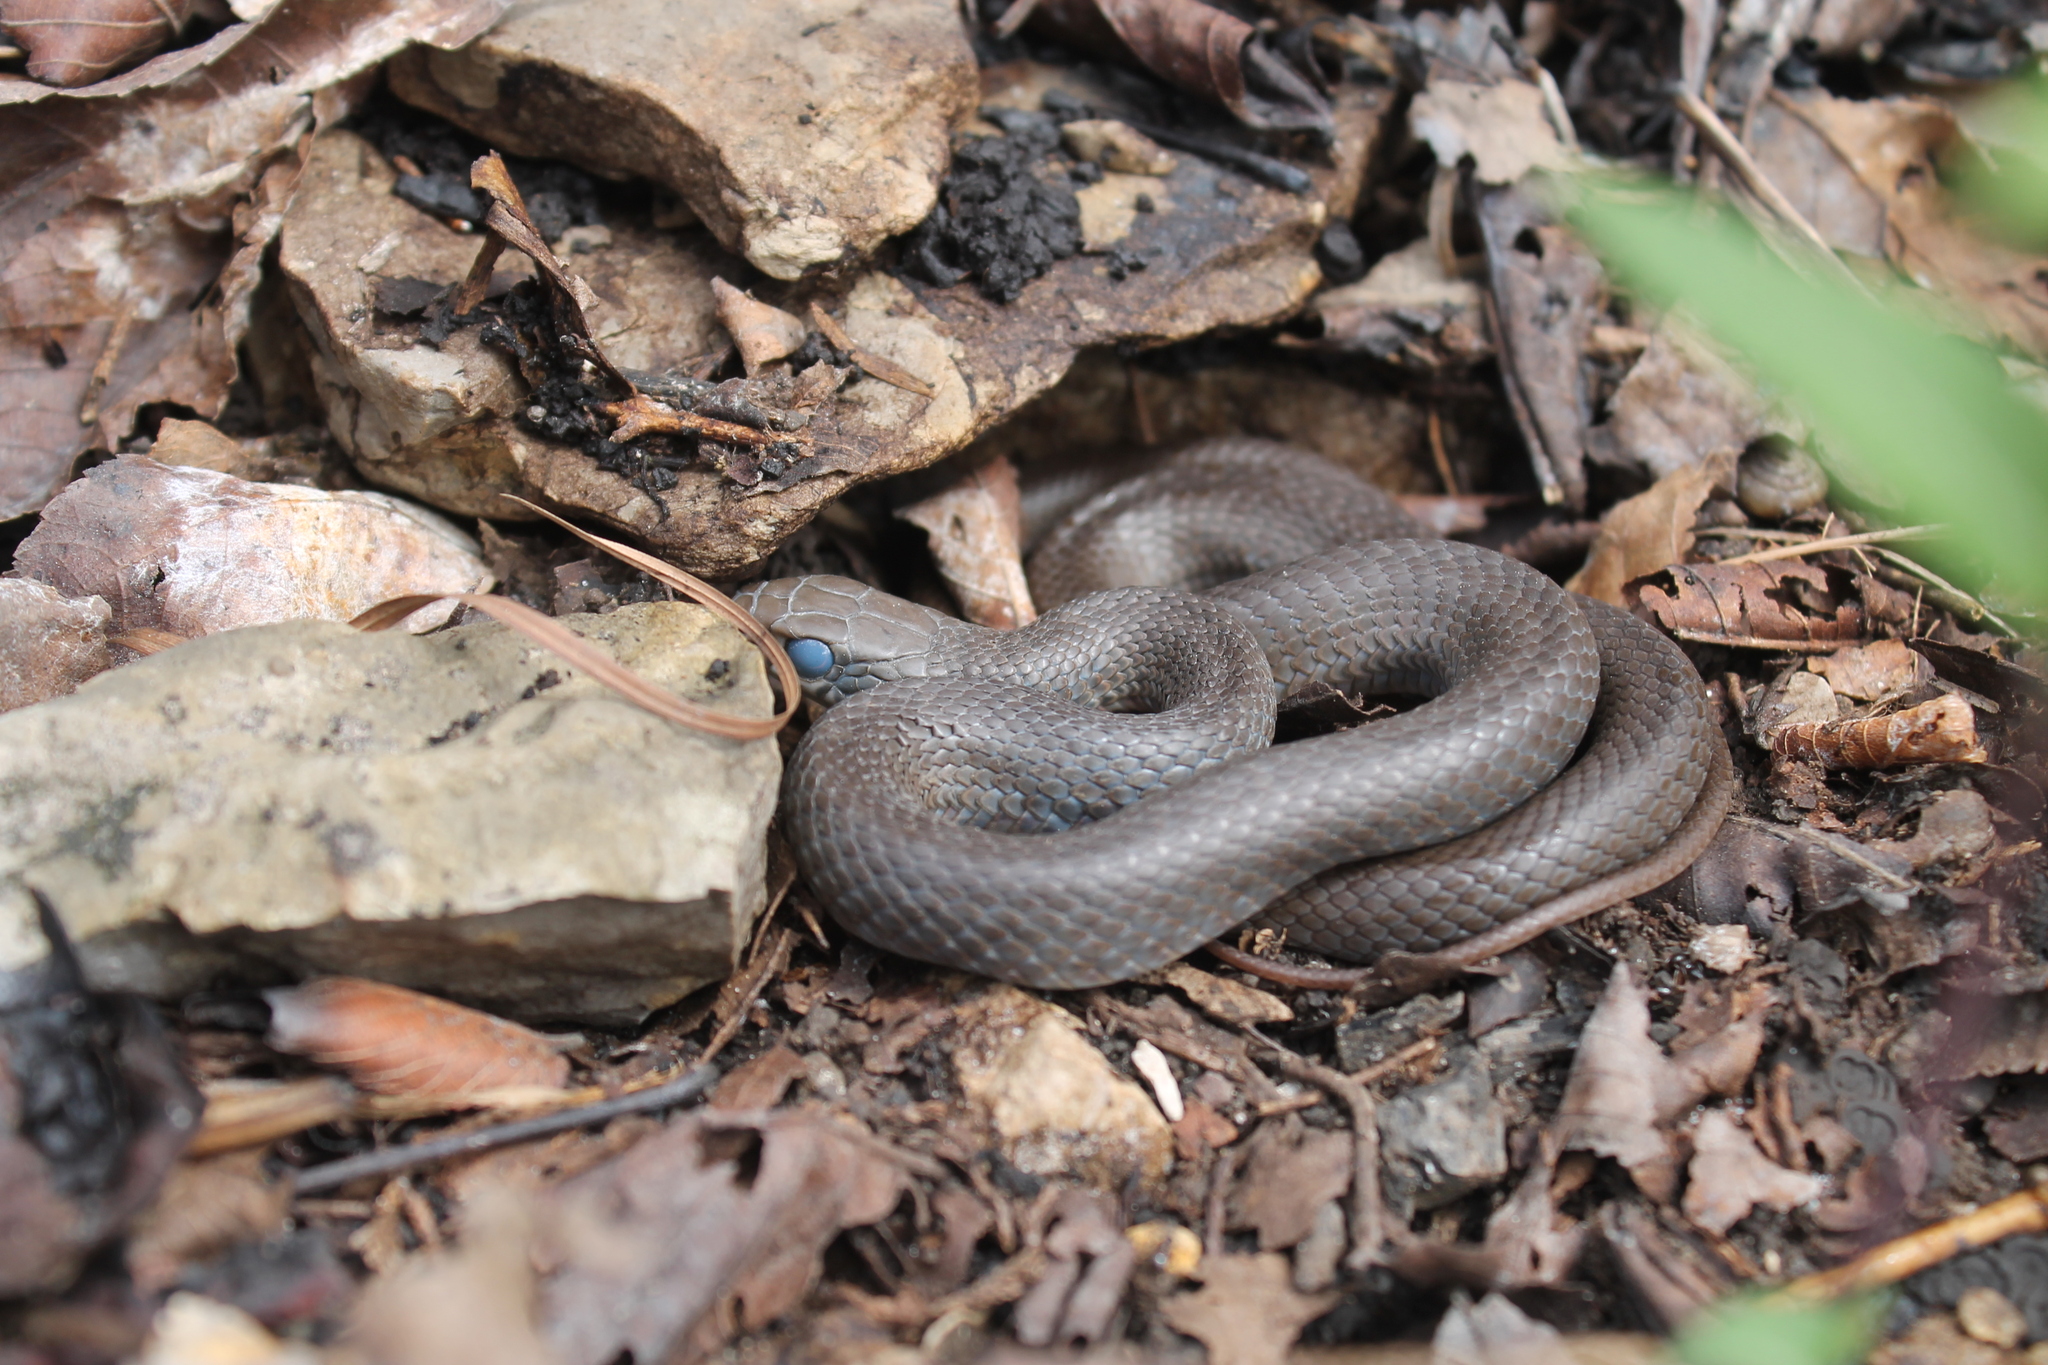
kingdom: Animalia
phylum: Chordata
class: Squamata
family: Colubridae
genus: Coluber
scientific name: Coluber constrictor
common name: Eastern racer
